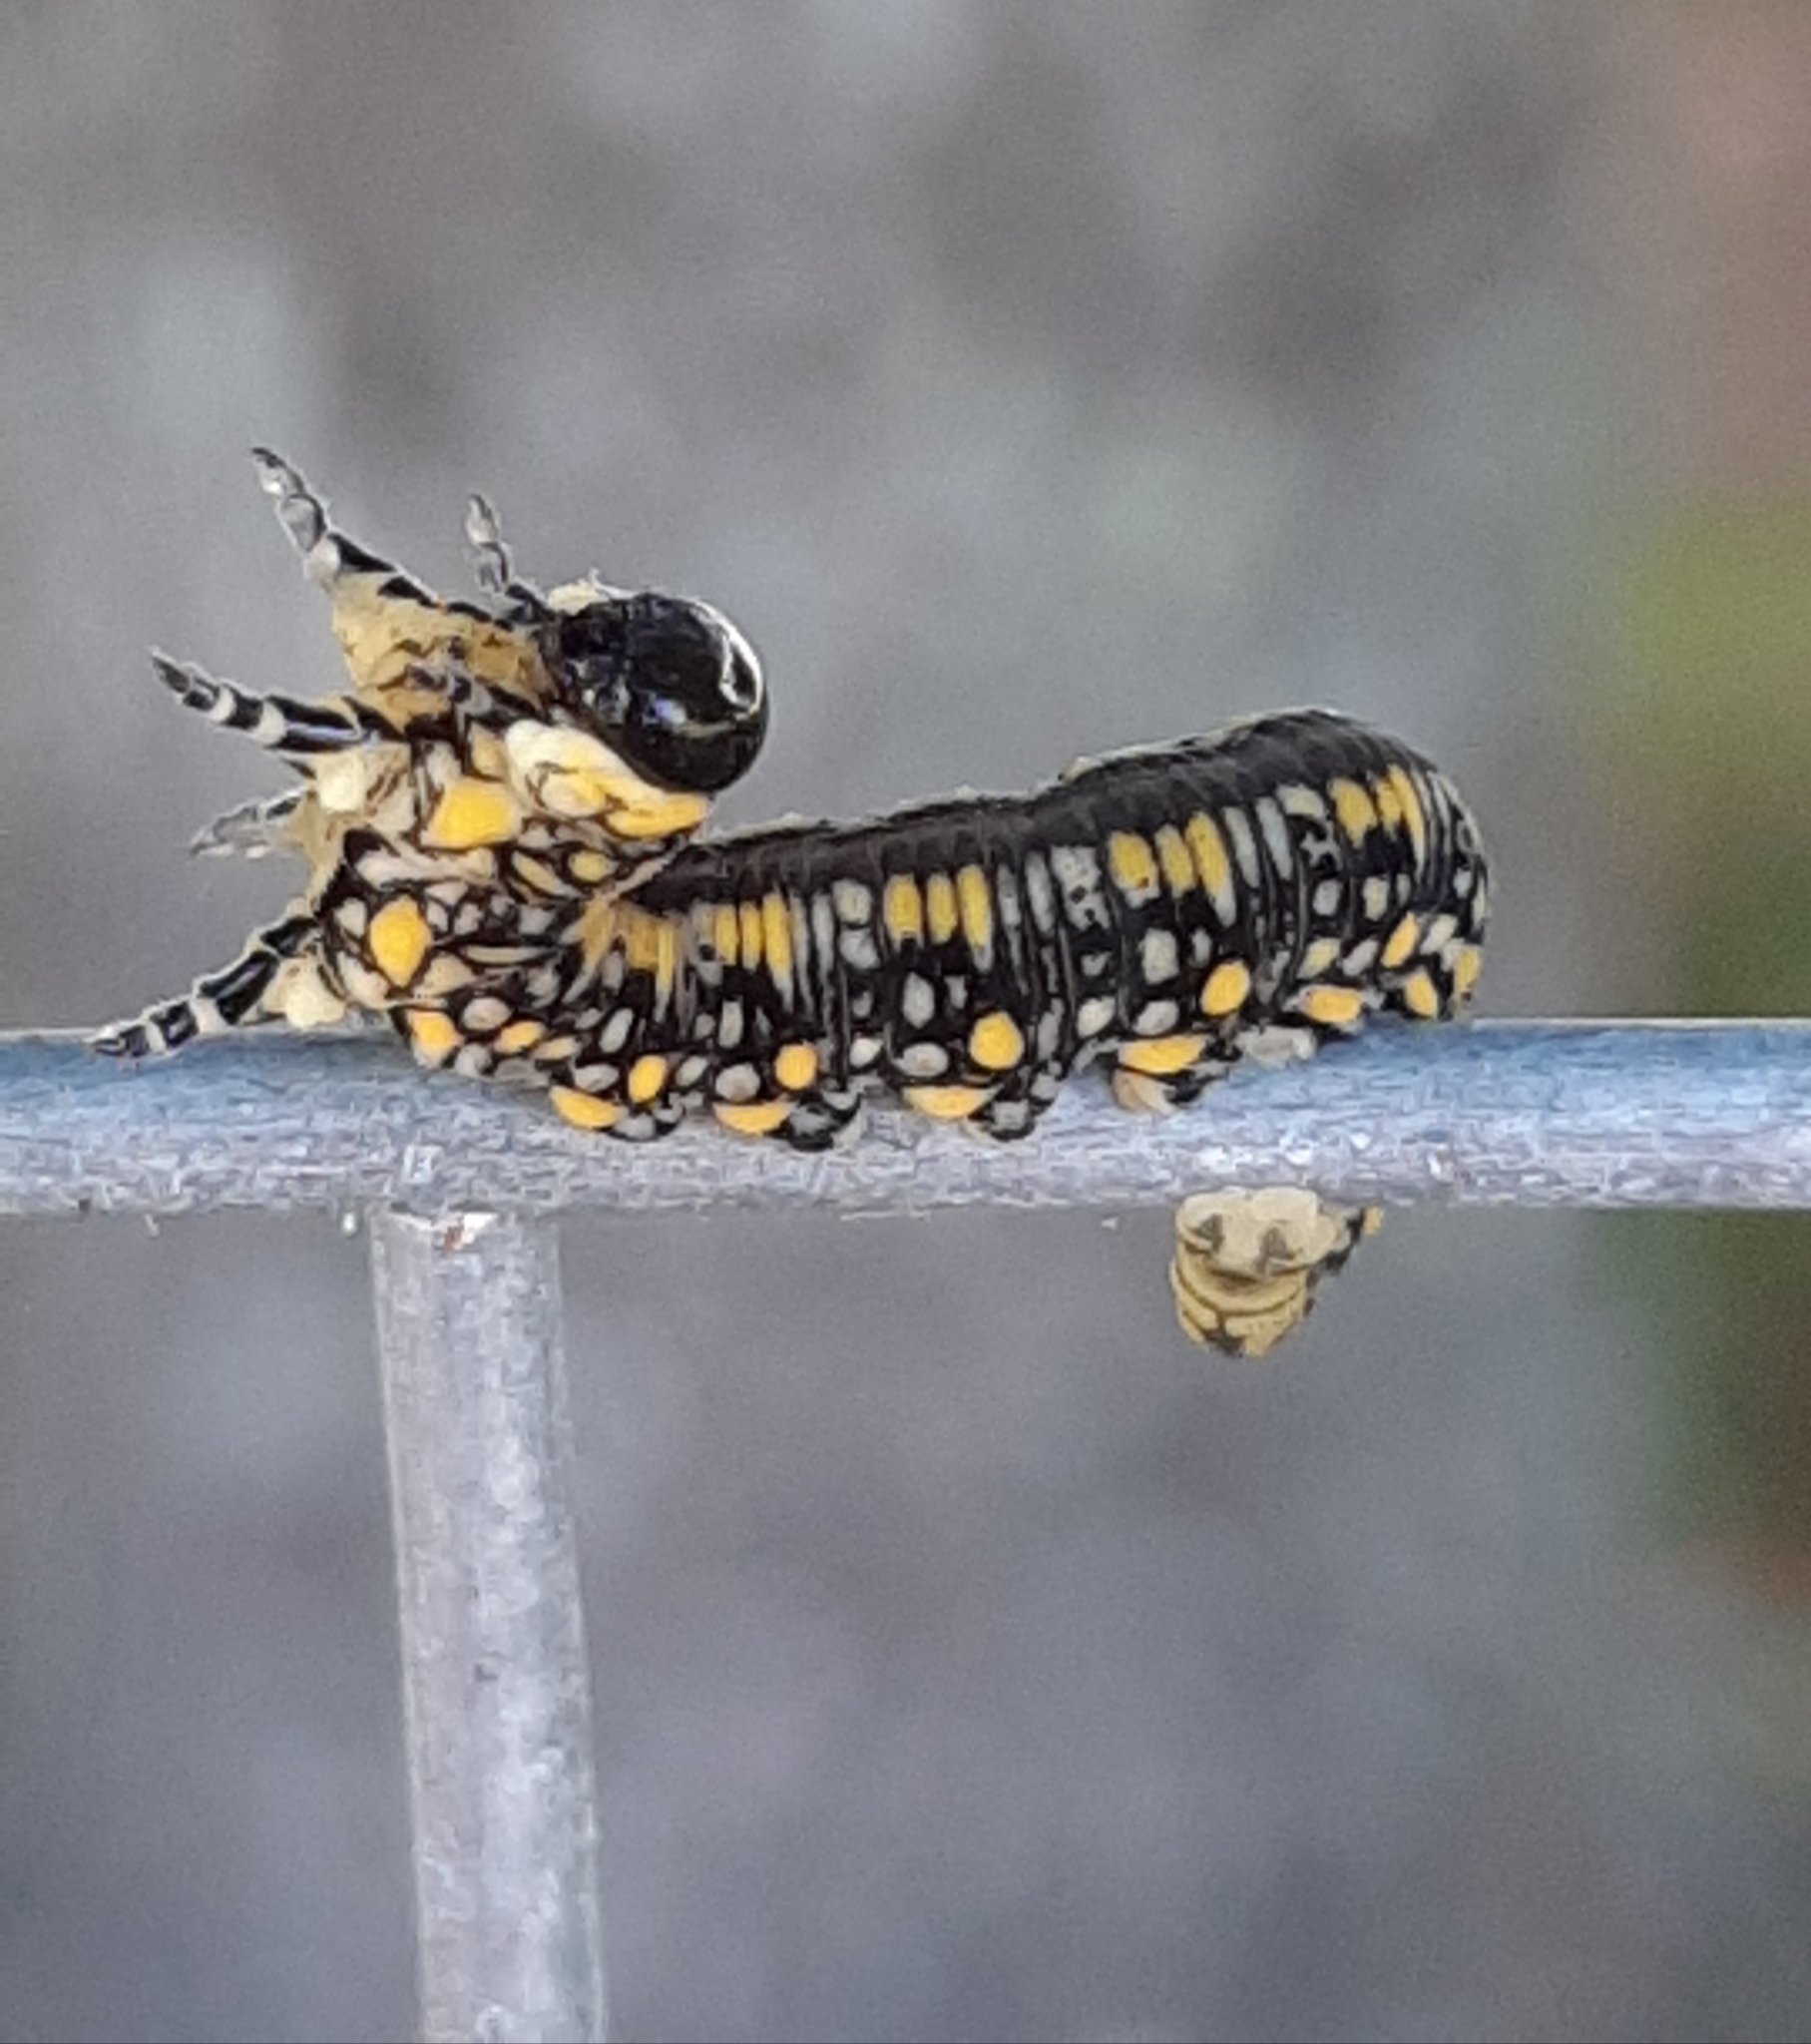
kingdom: Animalia
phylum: Arthropoda
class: Insecta
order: Hymenoptera
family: Diprionidae
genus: Diprion
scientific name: Diprion similis
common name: Pine sawfly
